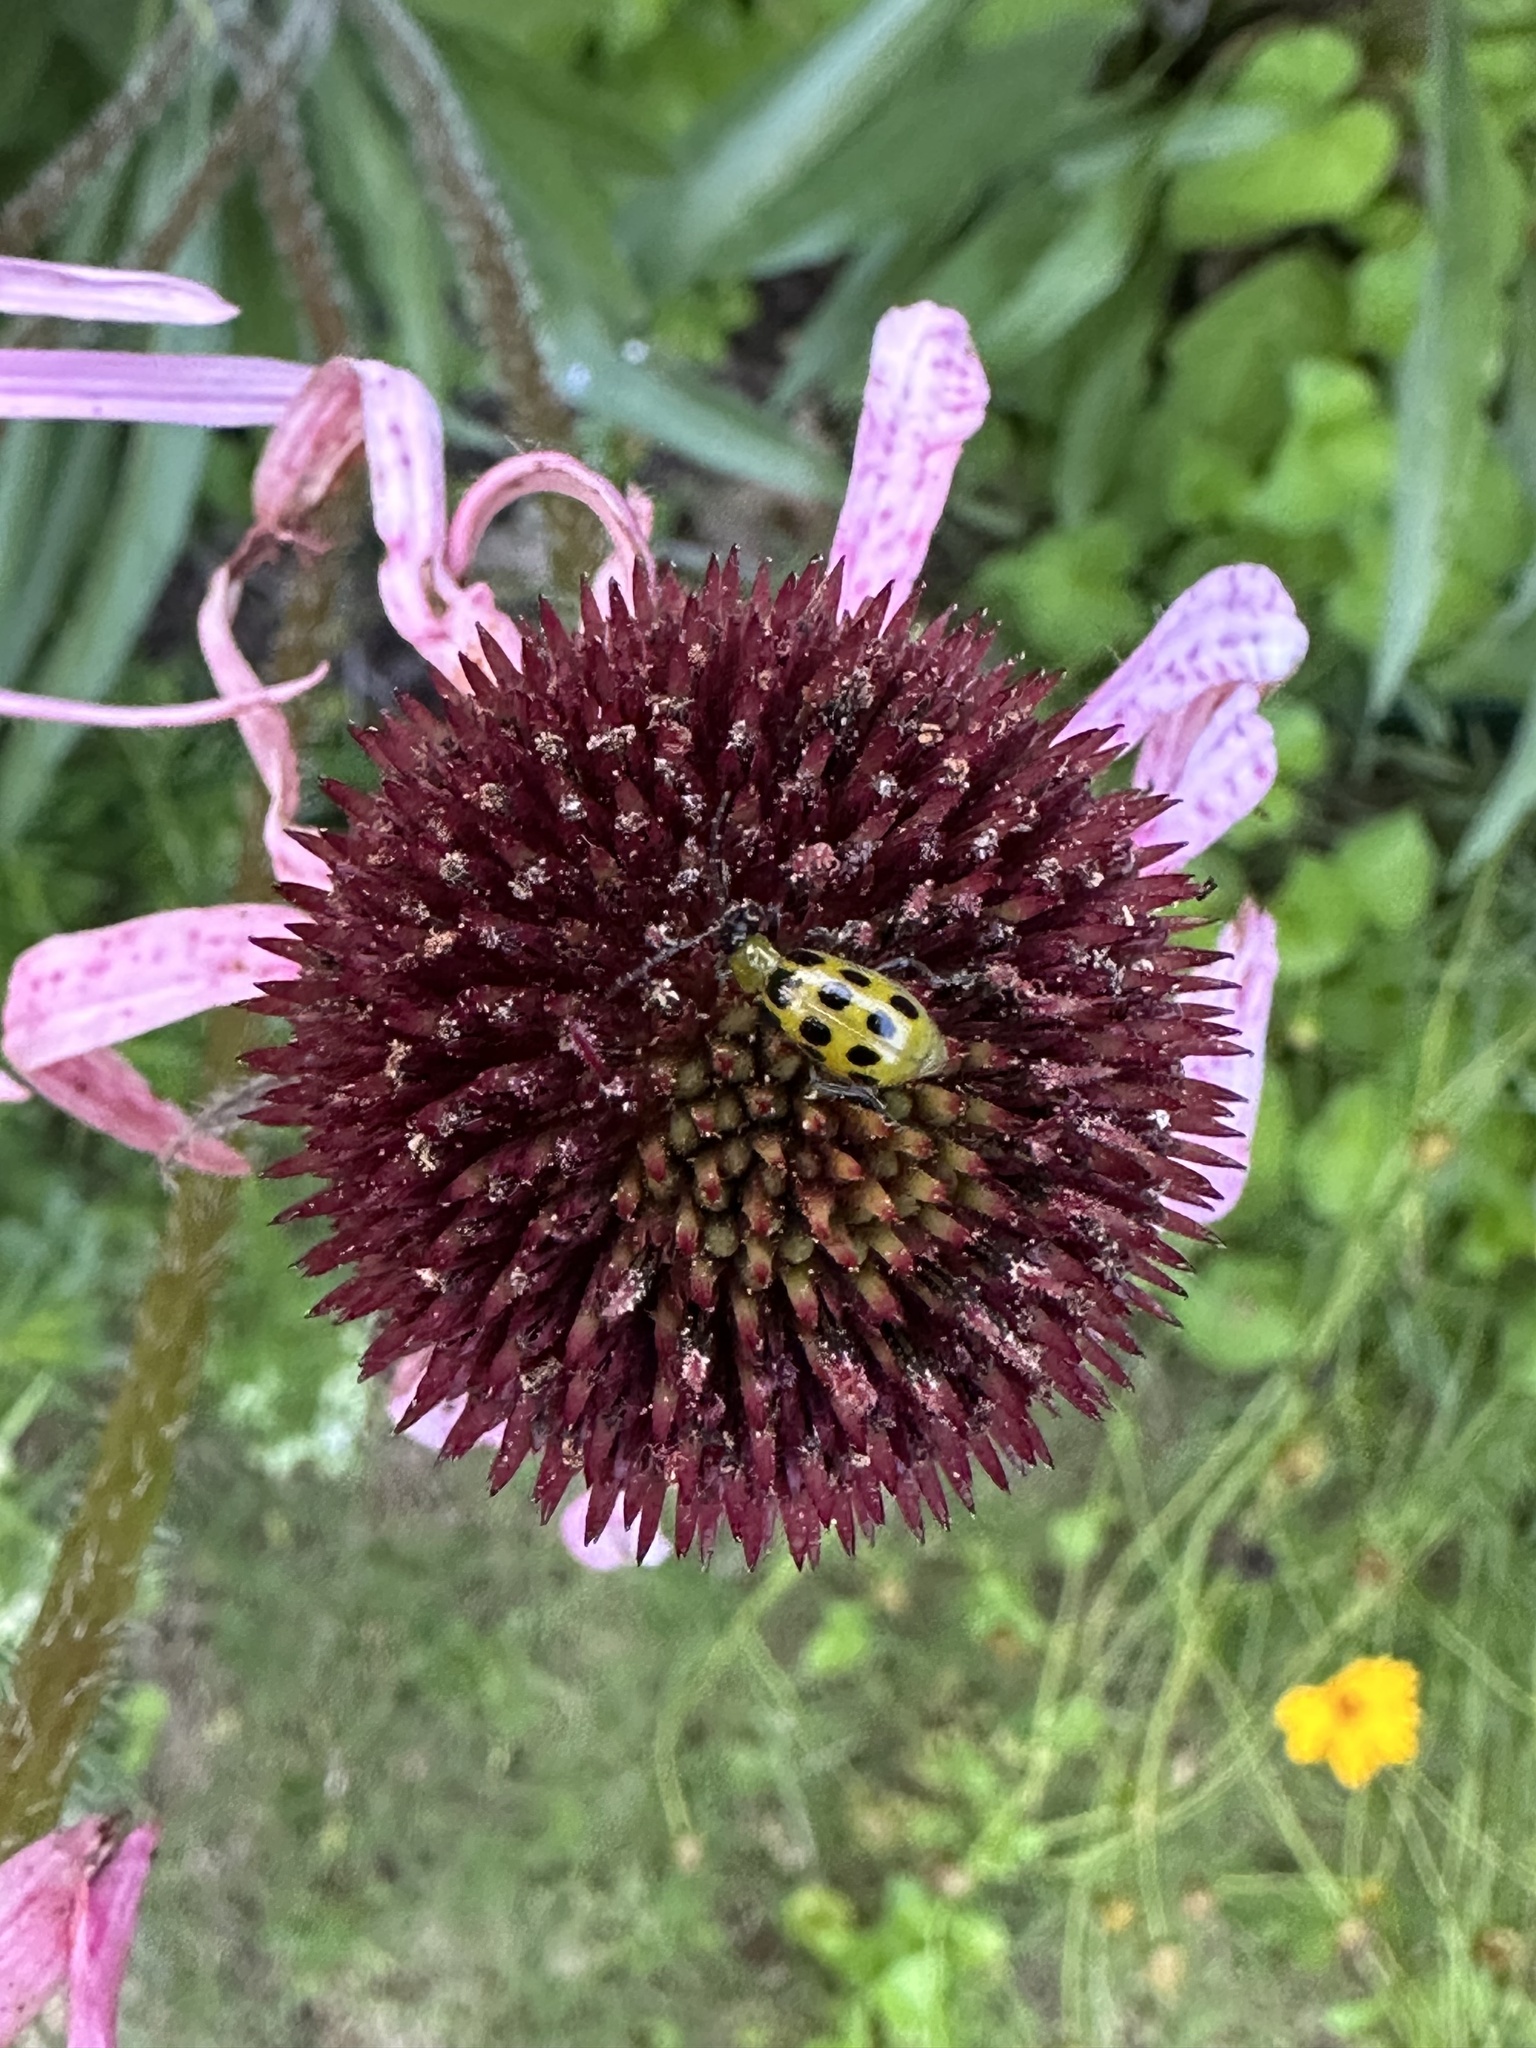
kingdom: Animalia
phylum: Arthropoda
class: Insecta
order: Coleoptera
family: Chrysomelidae
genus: Diabrotica
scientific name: Diabrotica undecimpunctata
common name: Spotted cucumber beetle
